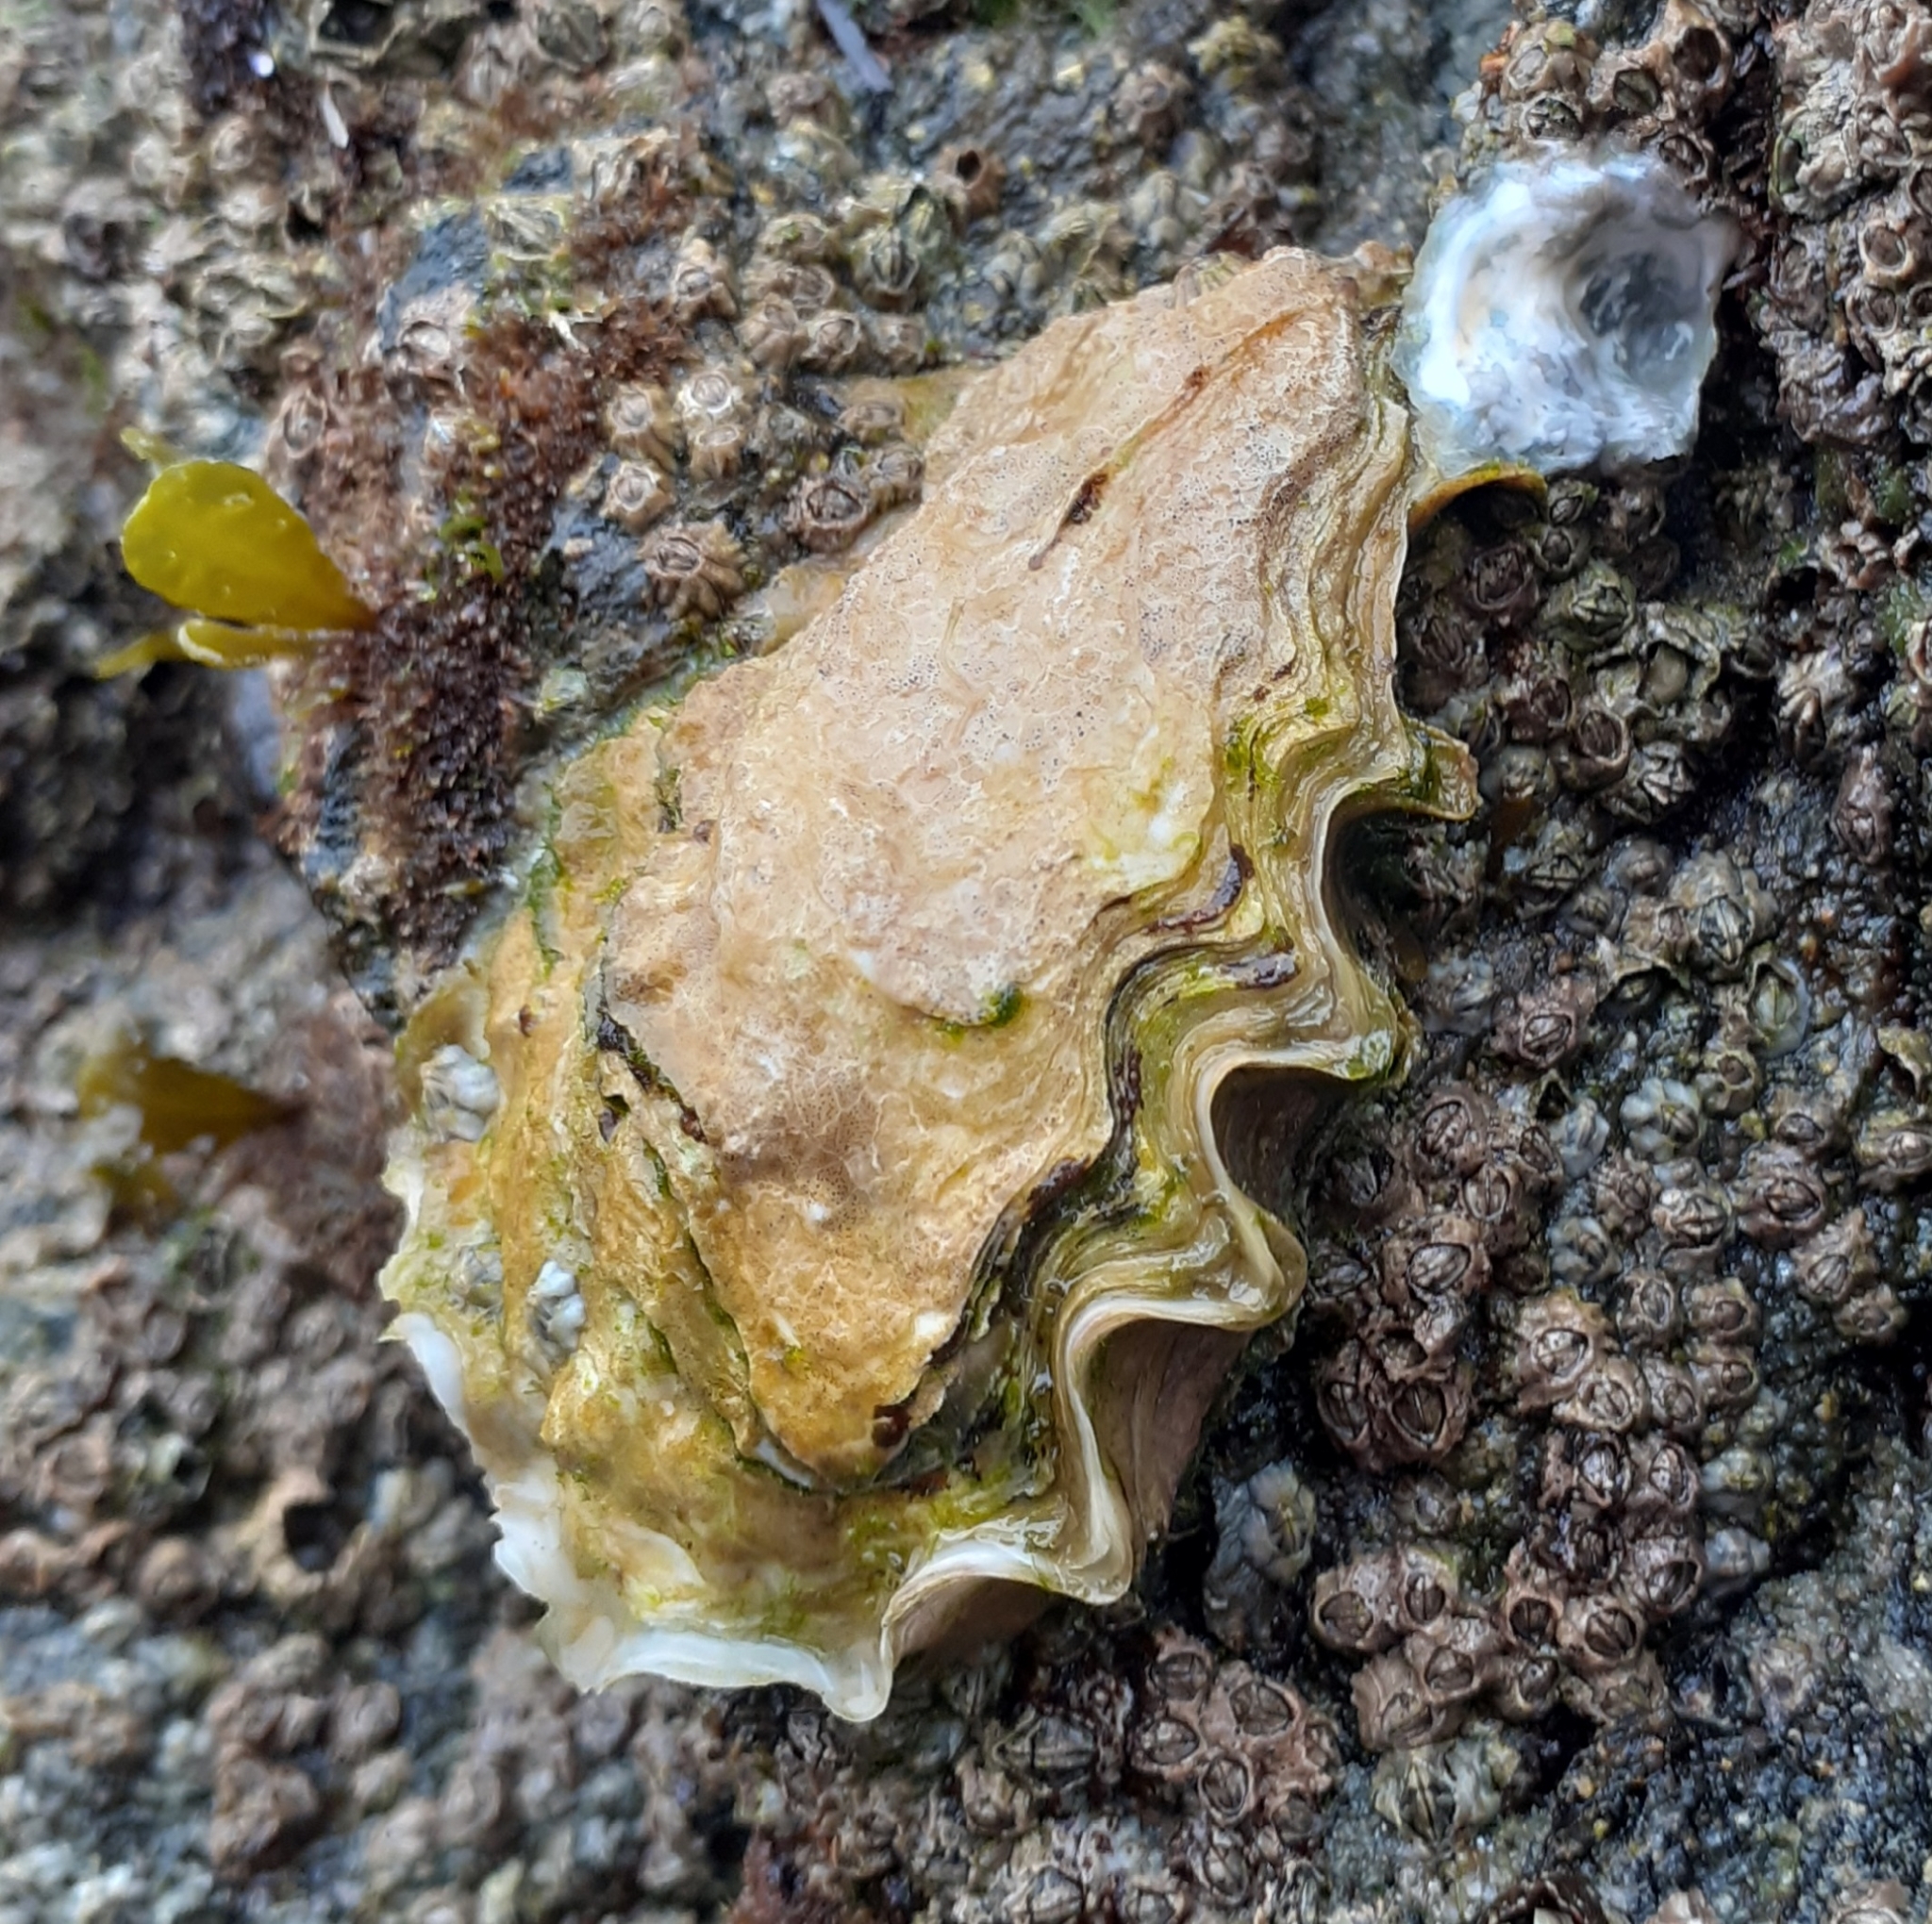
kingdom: Animalia
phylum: Mollusca
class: Bivalvia
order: Ostreida
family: Ostreidae
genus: Magallana
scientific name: Magallana gigas
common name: Pacific oyster
